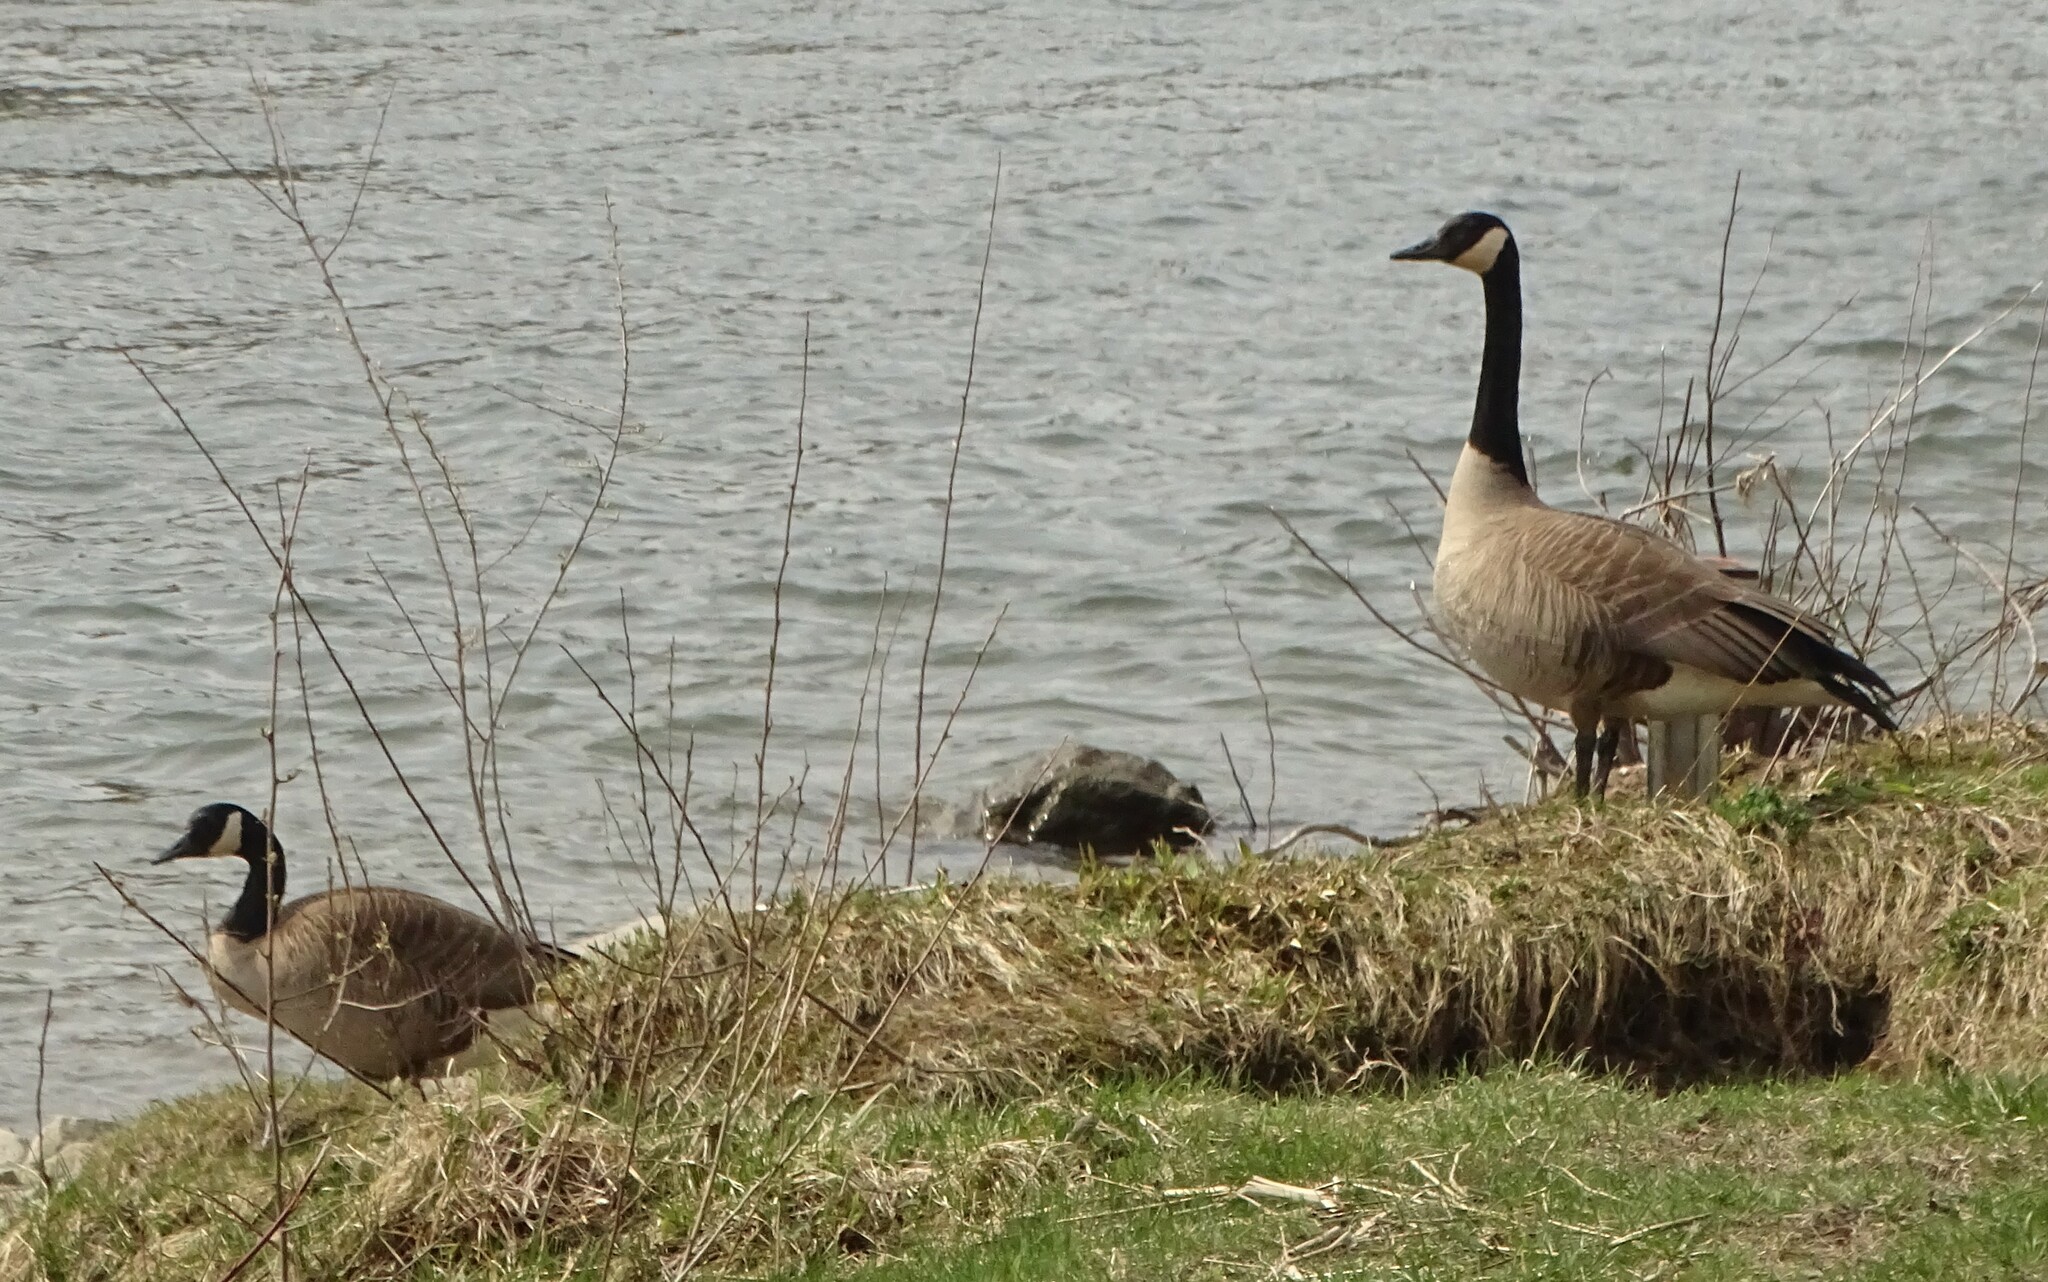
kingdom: Animalia
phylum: Chordata
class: Aves
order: Anseriformes
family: Anatidae
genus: Branta
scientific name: Branta canadensis
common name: Canada goose
